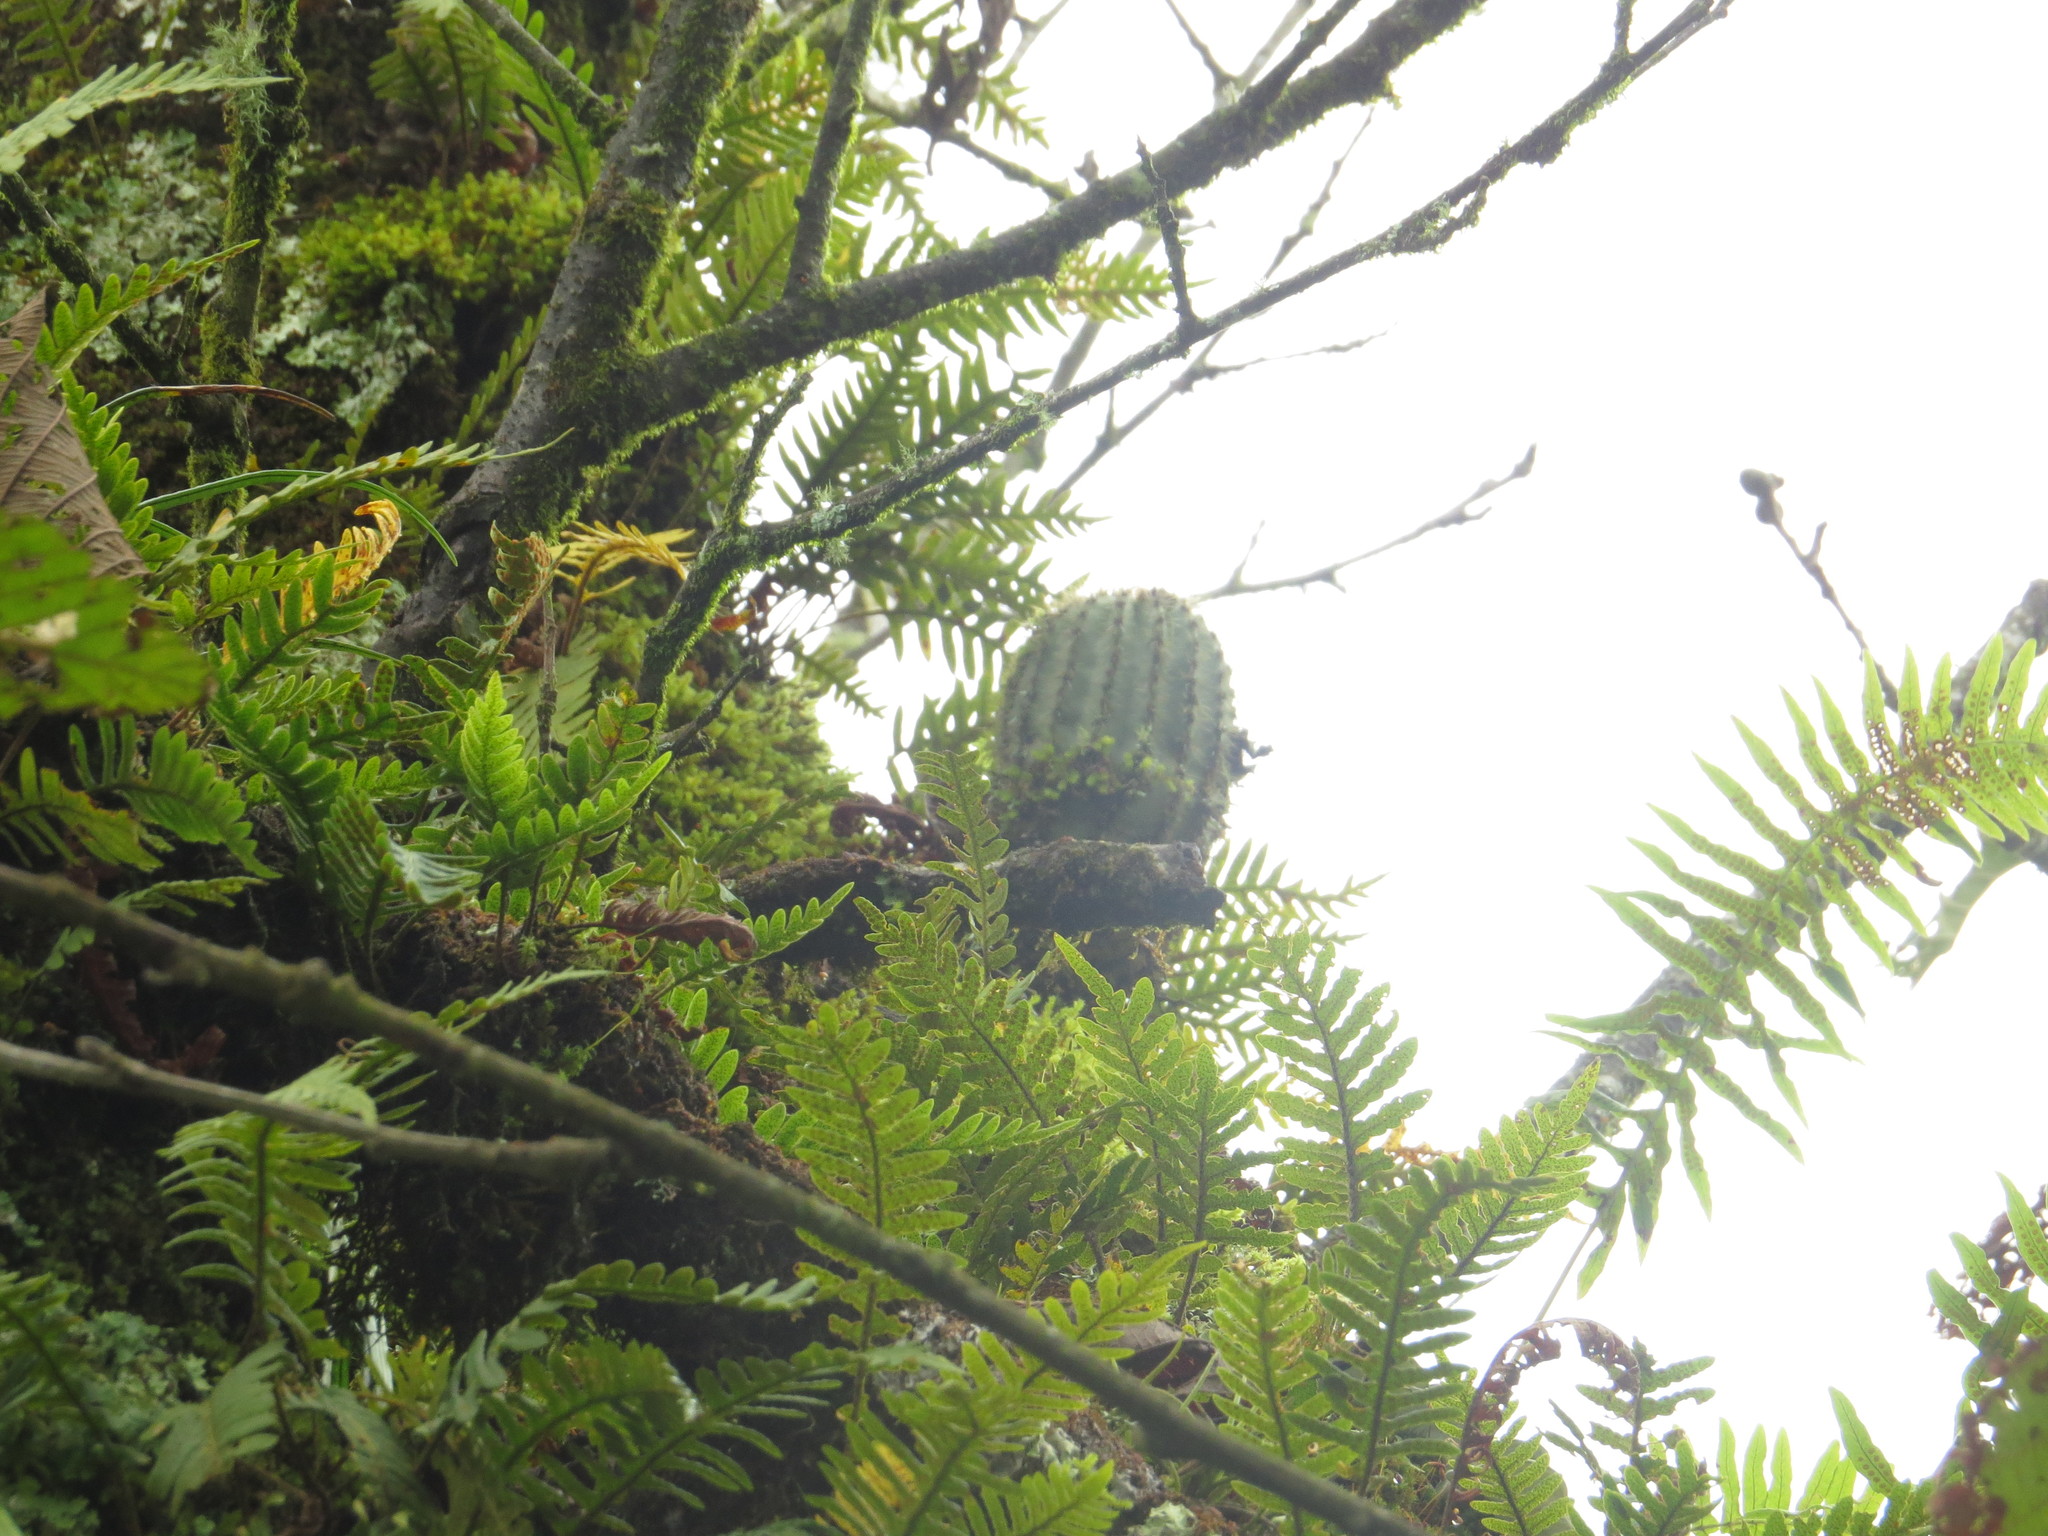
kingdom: Plantae
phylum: Tracheophyta
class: Magnoliopsida
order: Caryophyllales
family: Cactaceae
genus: Soehrensia
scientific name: Soehrensia schickendantzii
